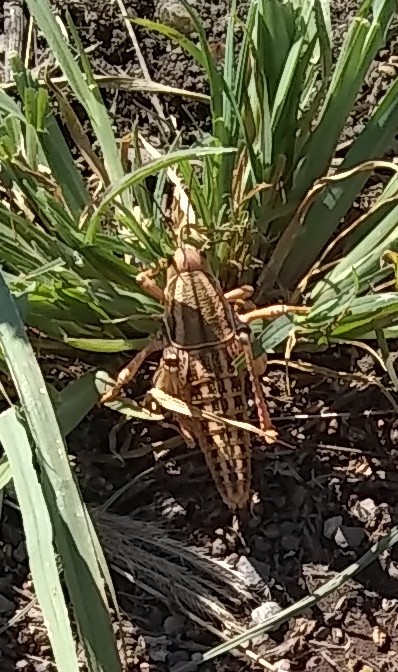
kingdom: Animalia
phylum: Arthropoda
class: Insecta
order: Orthoptera
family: Romaleidae
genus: Brachystola
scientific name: Brachystola magna
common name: Plains lubber grasshopper
